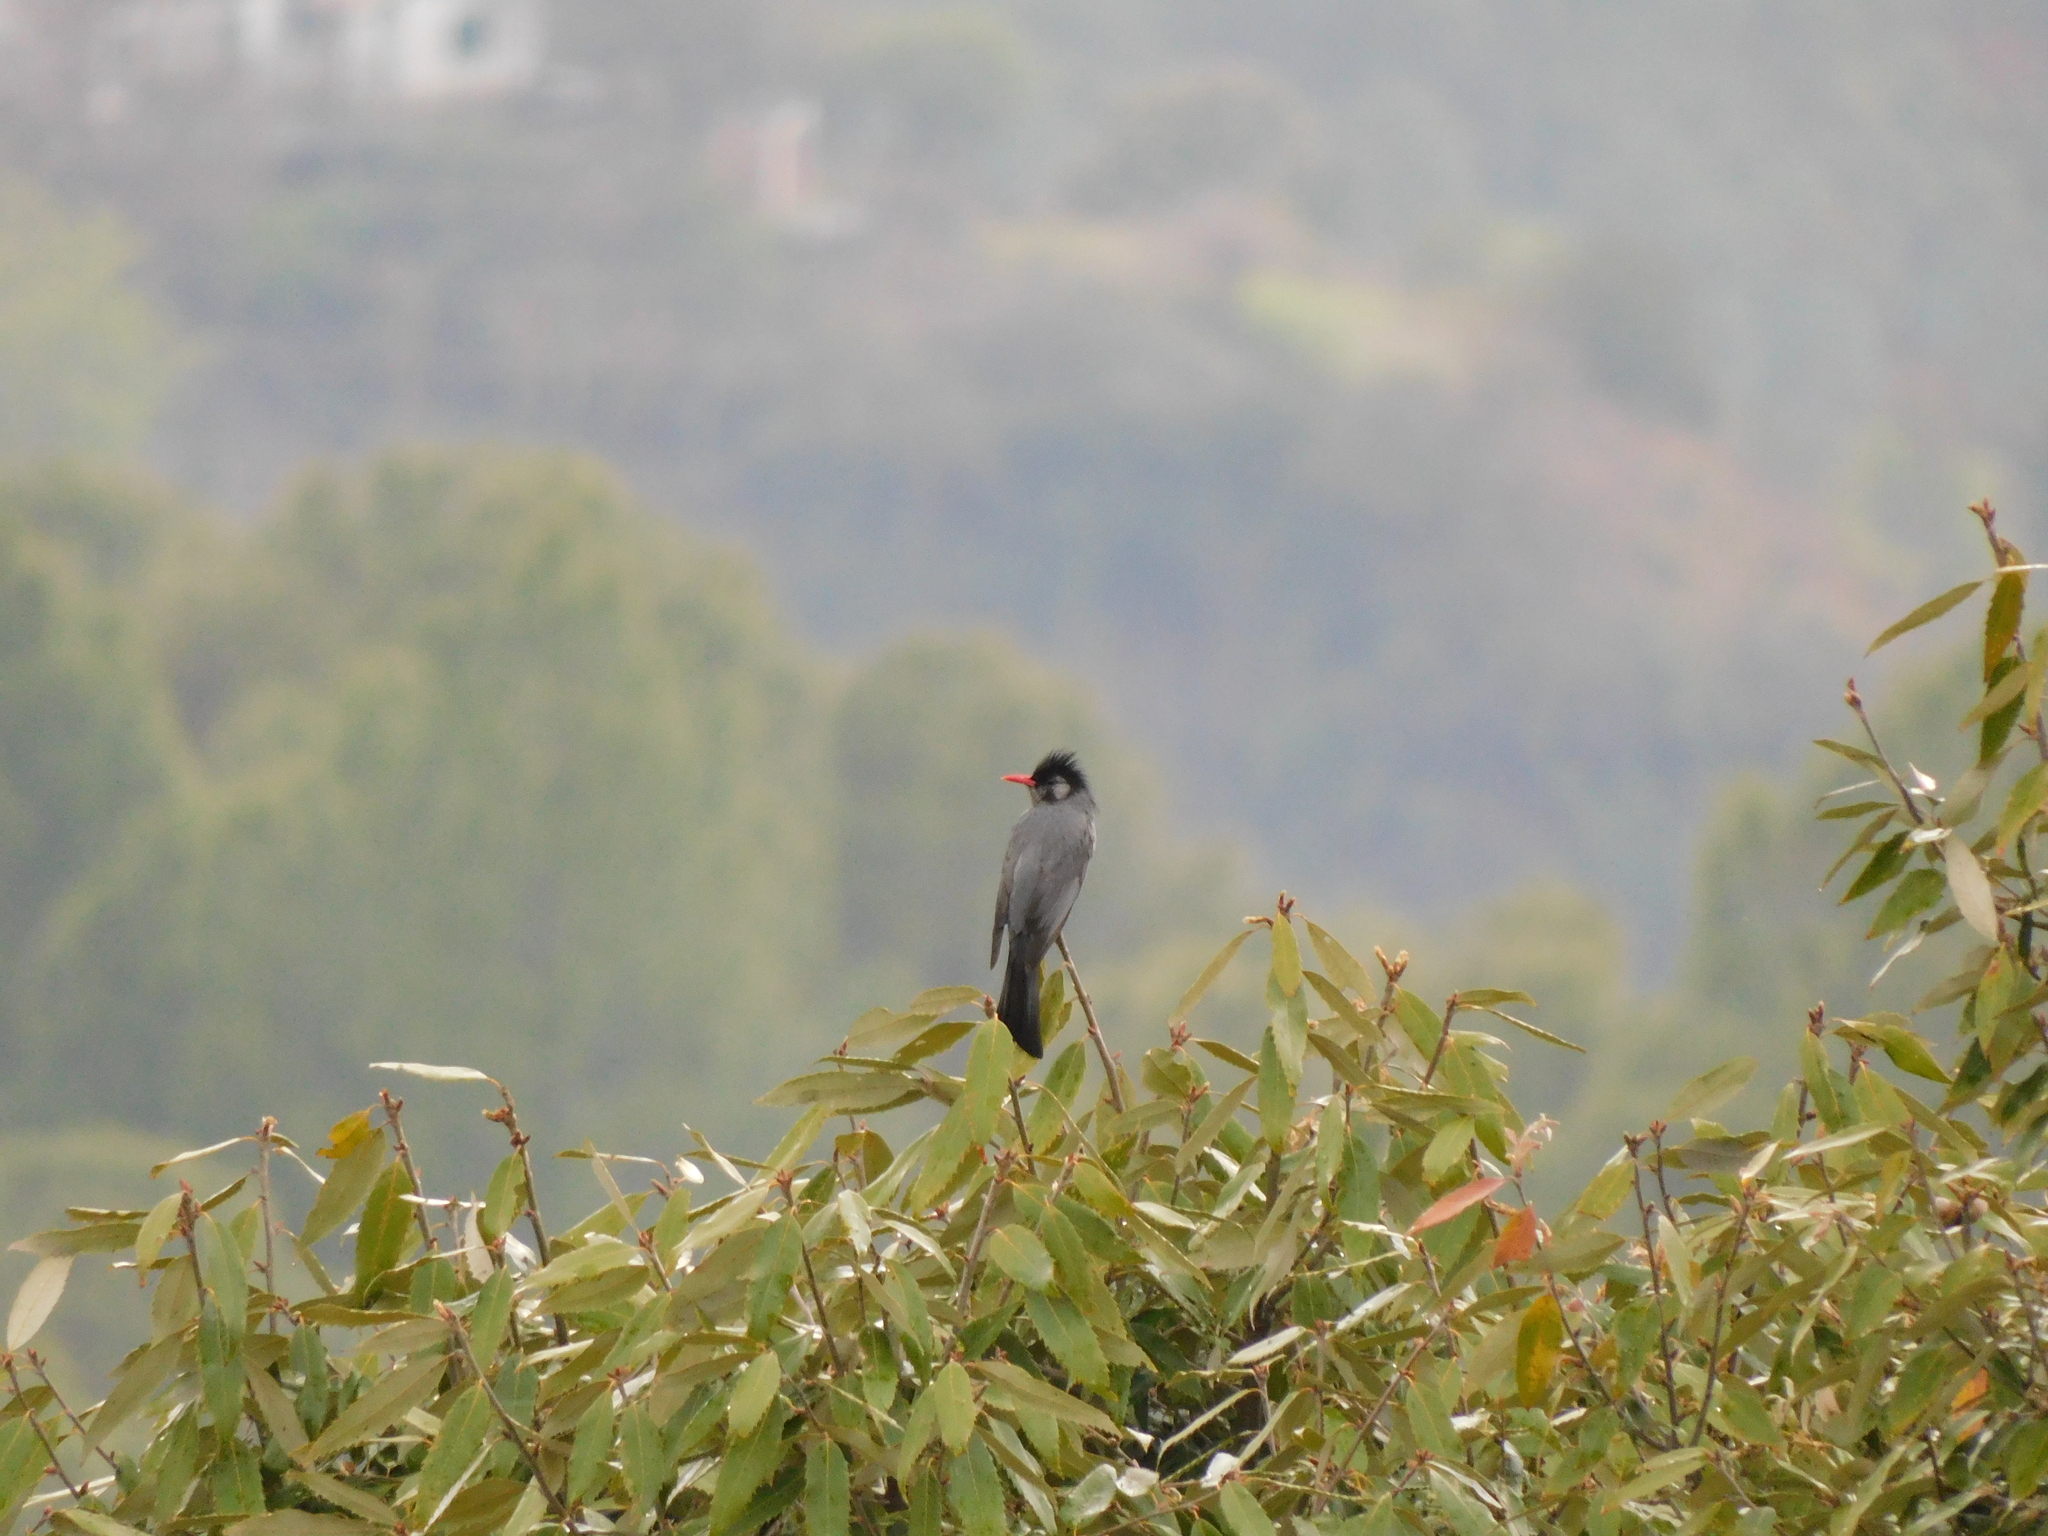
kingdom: Animalia
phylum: Chordata
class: Aves
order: Passeriformes
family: Pycnonotidae
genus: Hypsipetes
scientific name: Hypsipetes leucocephalus
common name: Black bulbul
